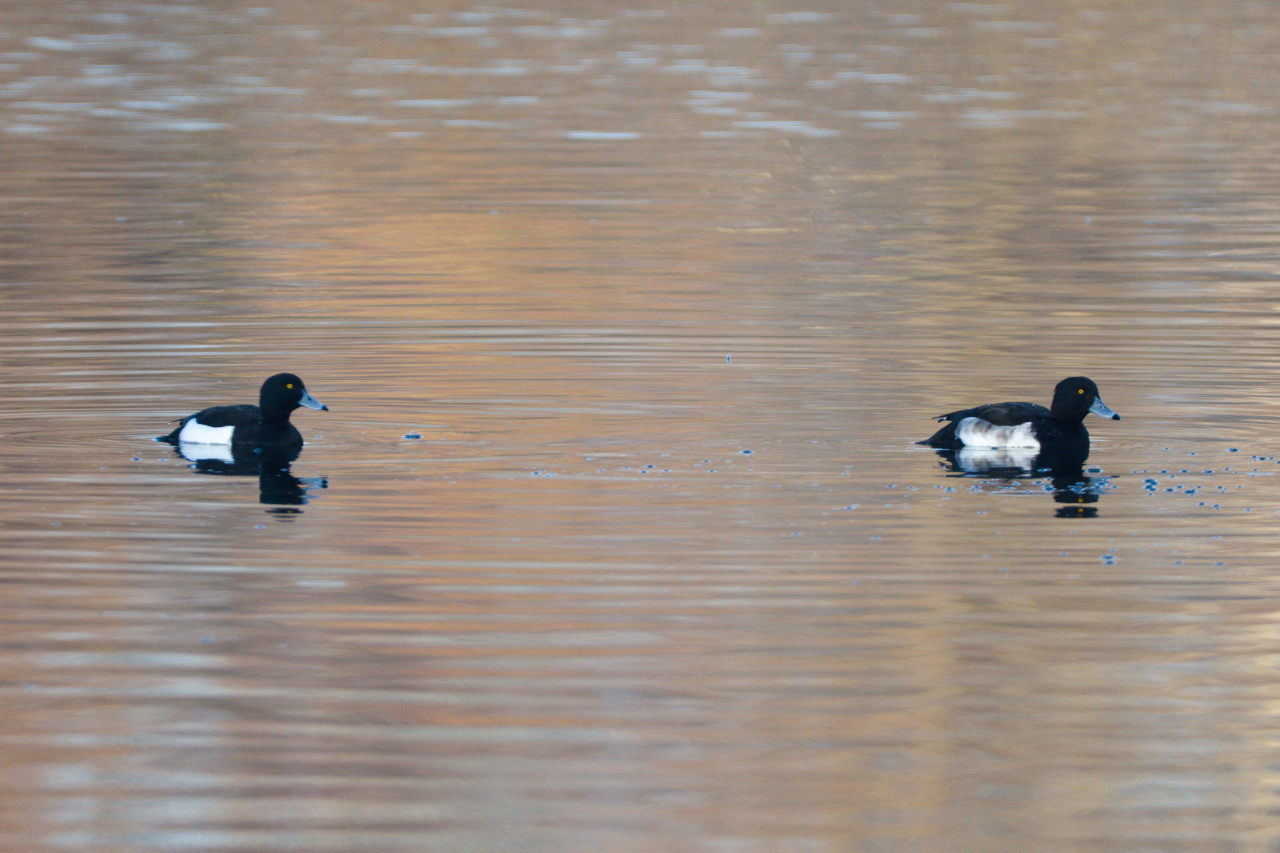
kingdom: Animalia
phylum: Chordata
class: Aves
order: Anseriformes
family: Anatidae
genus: Aythya
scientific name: Aythya fuligula
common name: Tufted duck
